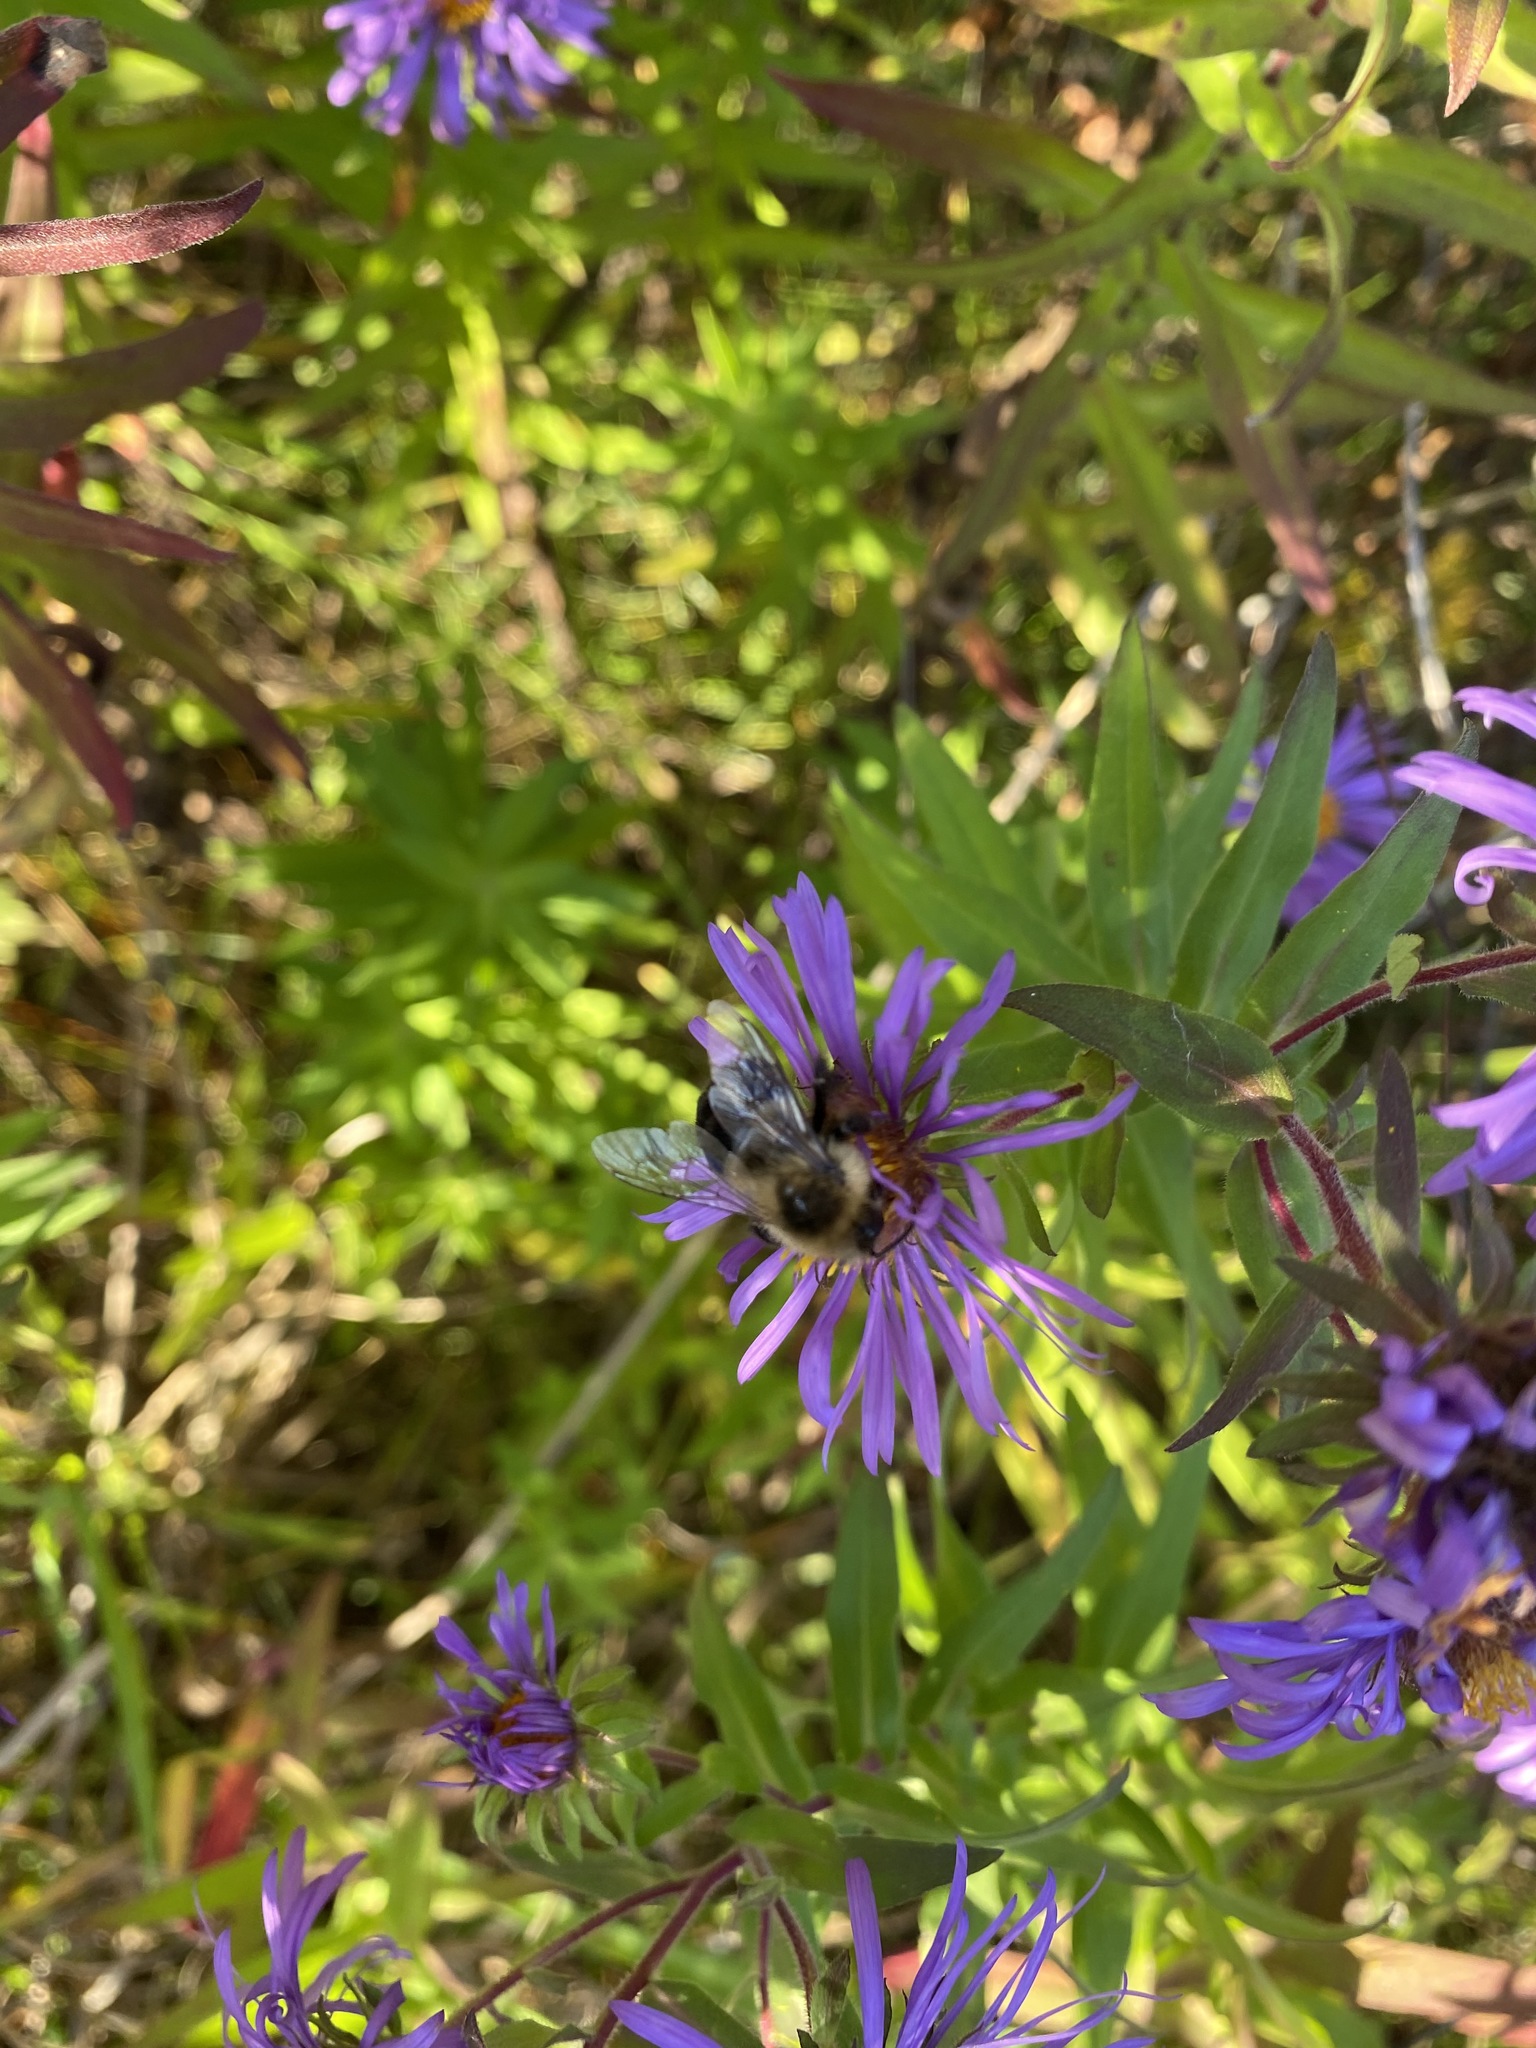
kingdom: Animalia
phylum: Arthropoda
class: Insecta
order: Hymenoptera
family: Apidae
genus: Bombus
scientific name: Bombus impatiens
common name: Common eastern bumble bee
